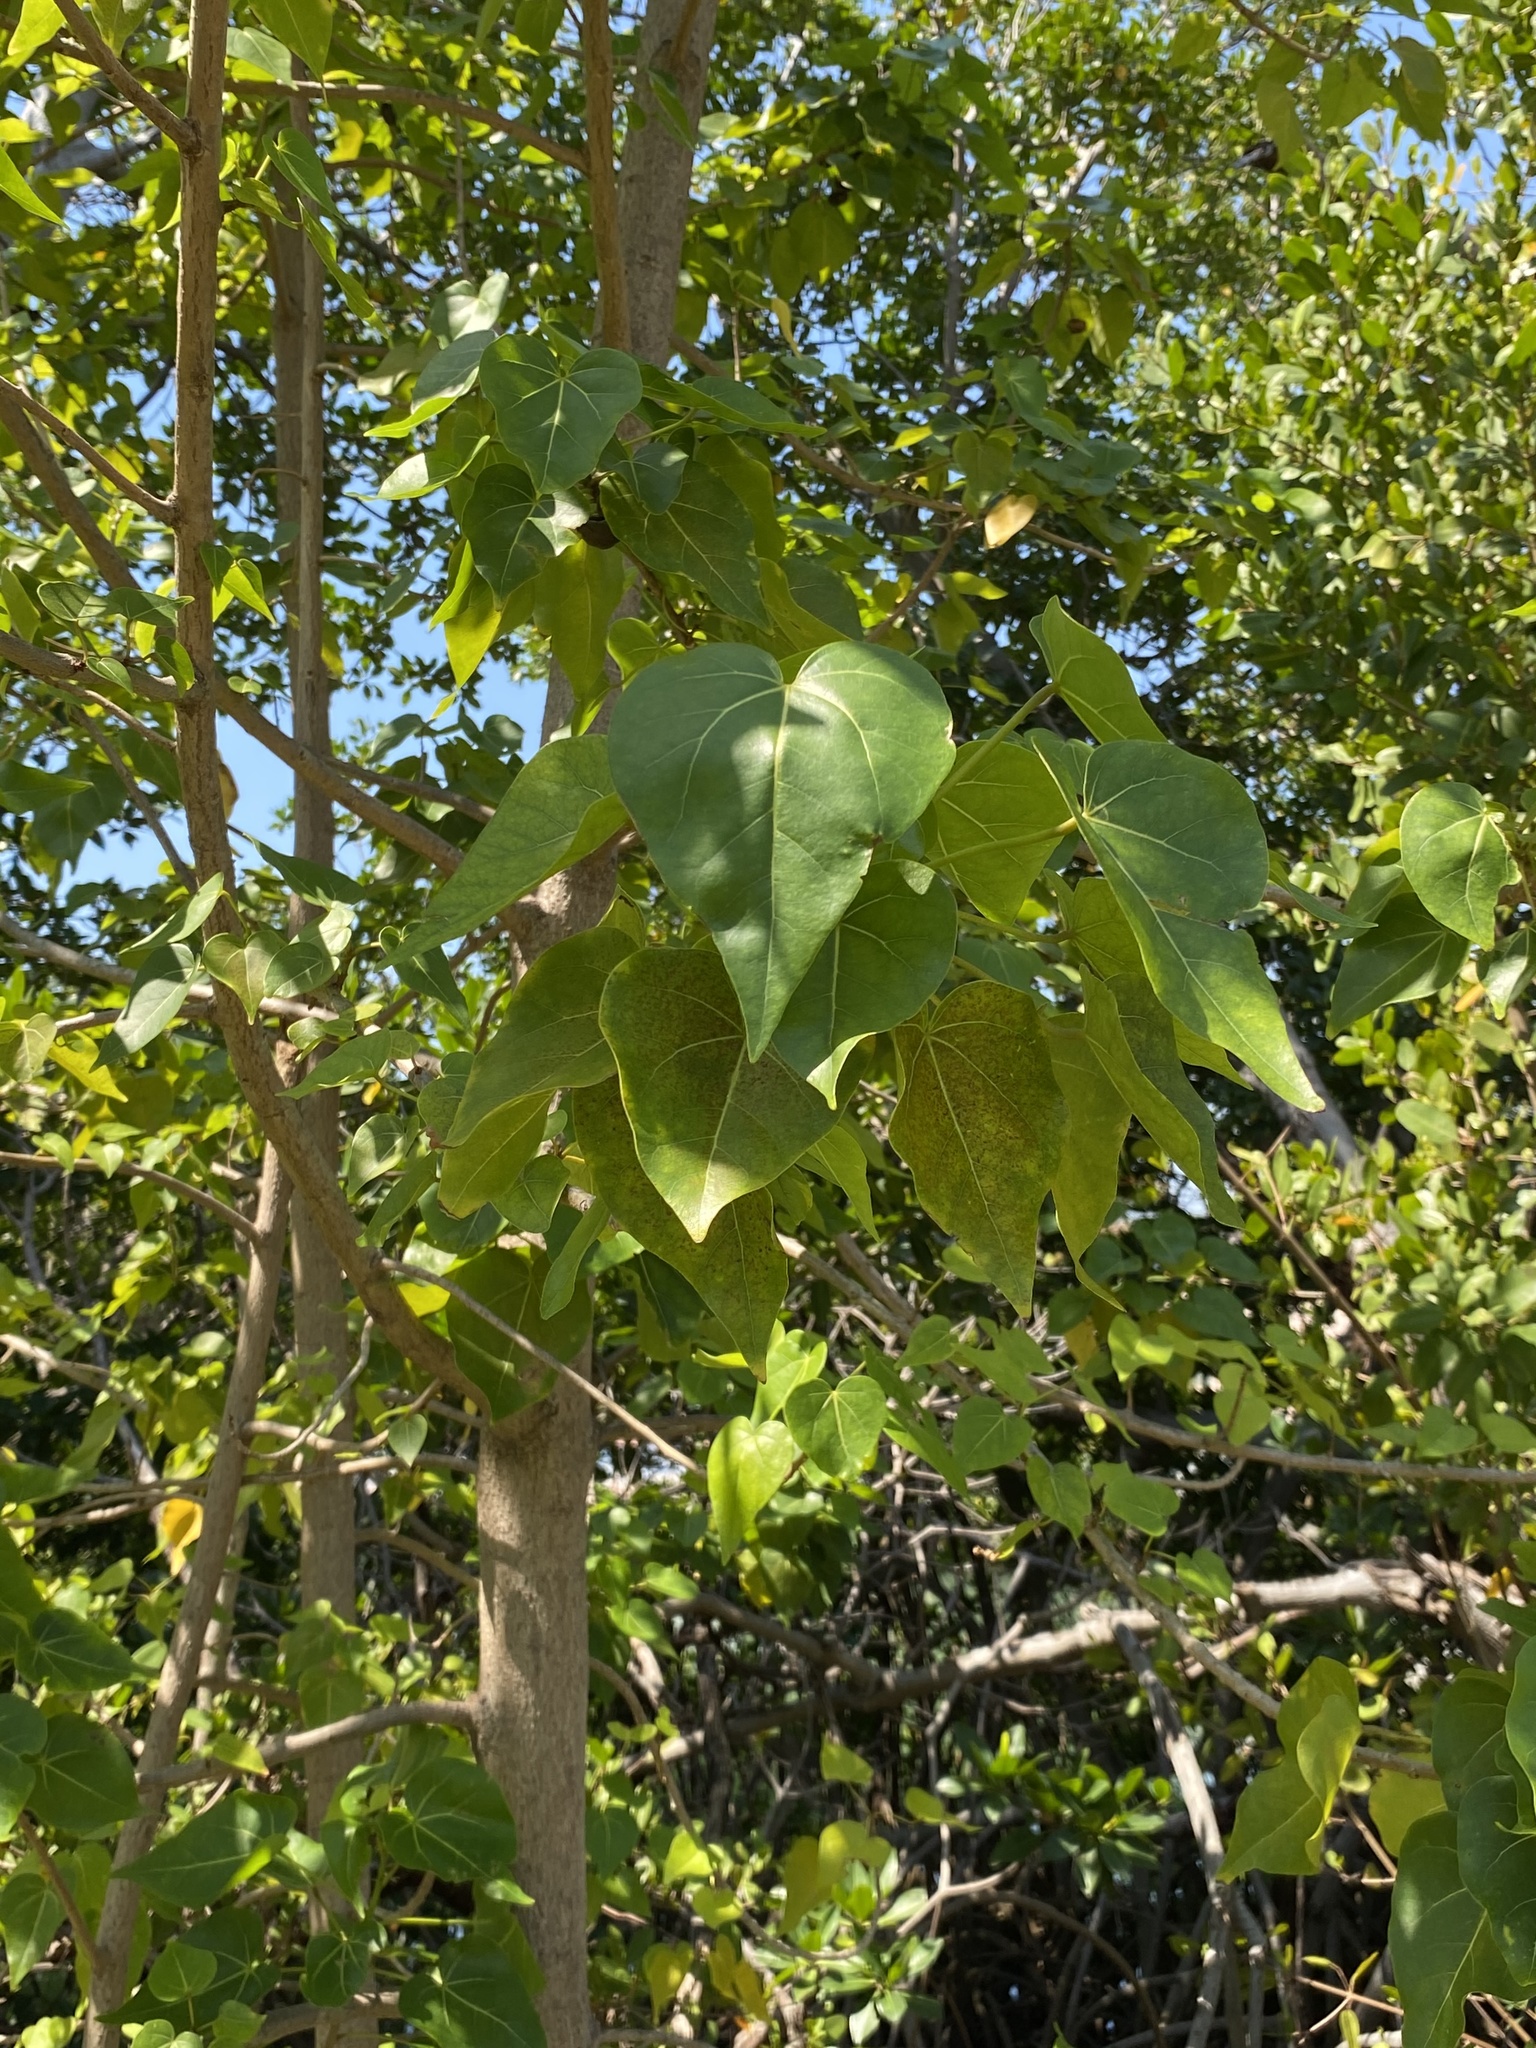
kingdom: Plantae
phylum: Tracheophyta
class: Magnoliopsida
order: Malvales
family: Malvaceae
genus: Thespesia
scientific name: Thespesia populnea
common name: Seaside mahoe
